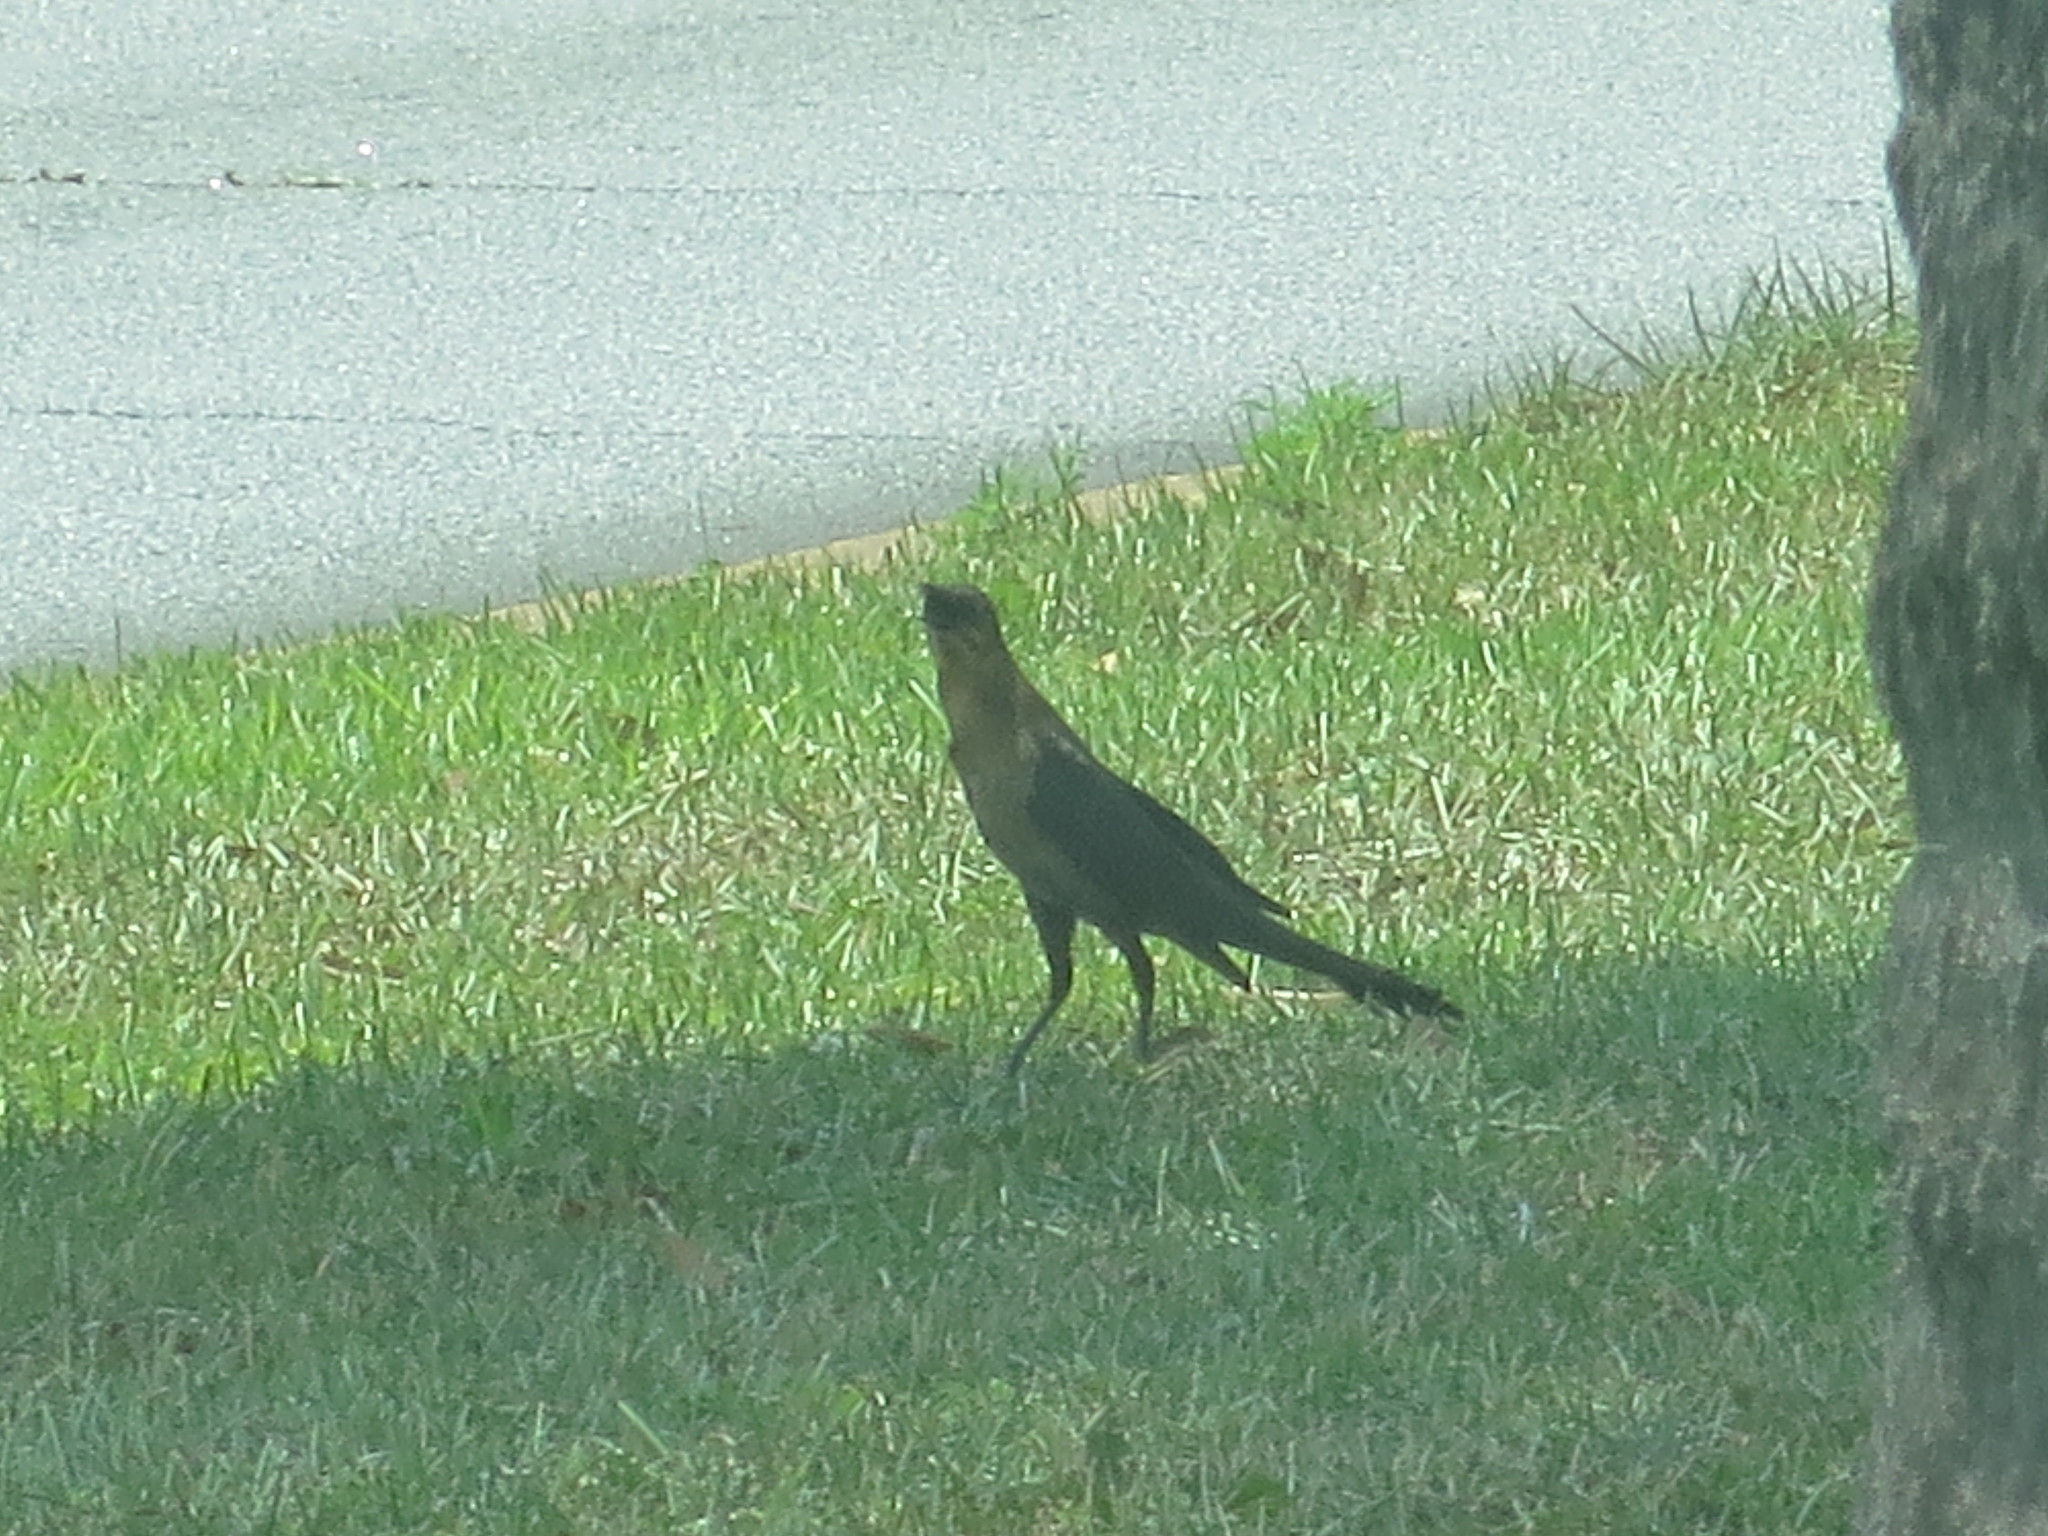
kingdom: Animalia
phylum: Chordata
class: Aves
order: Passeriformes
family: Icteridae
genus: Quiscalus
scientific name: Quiscalus major
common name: Boat-tailed grackle
